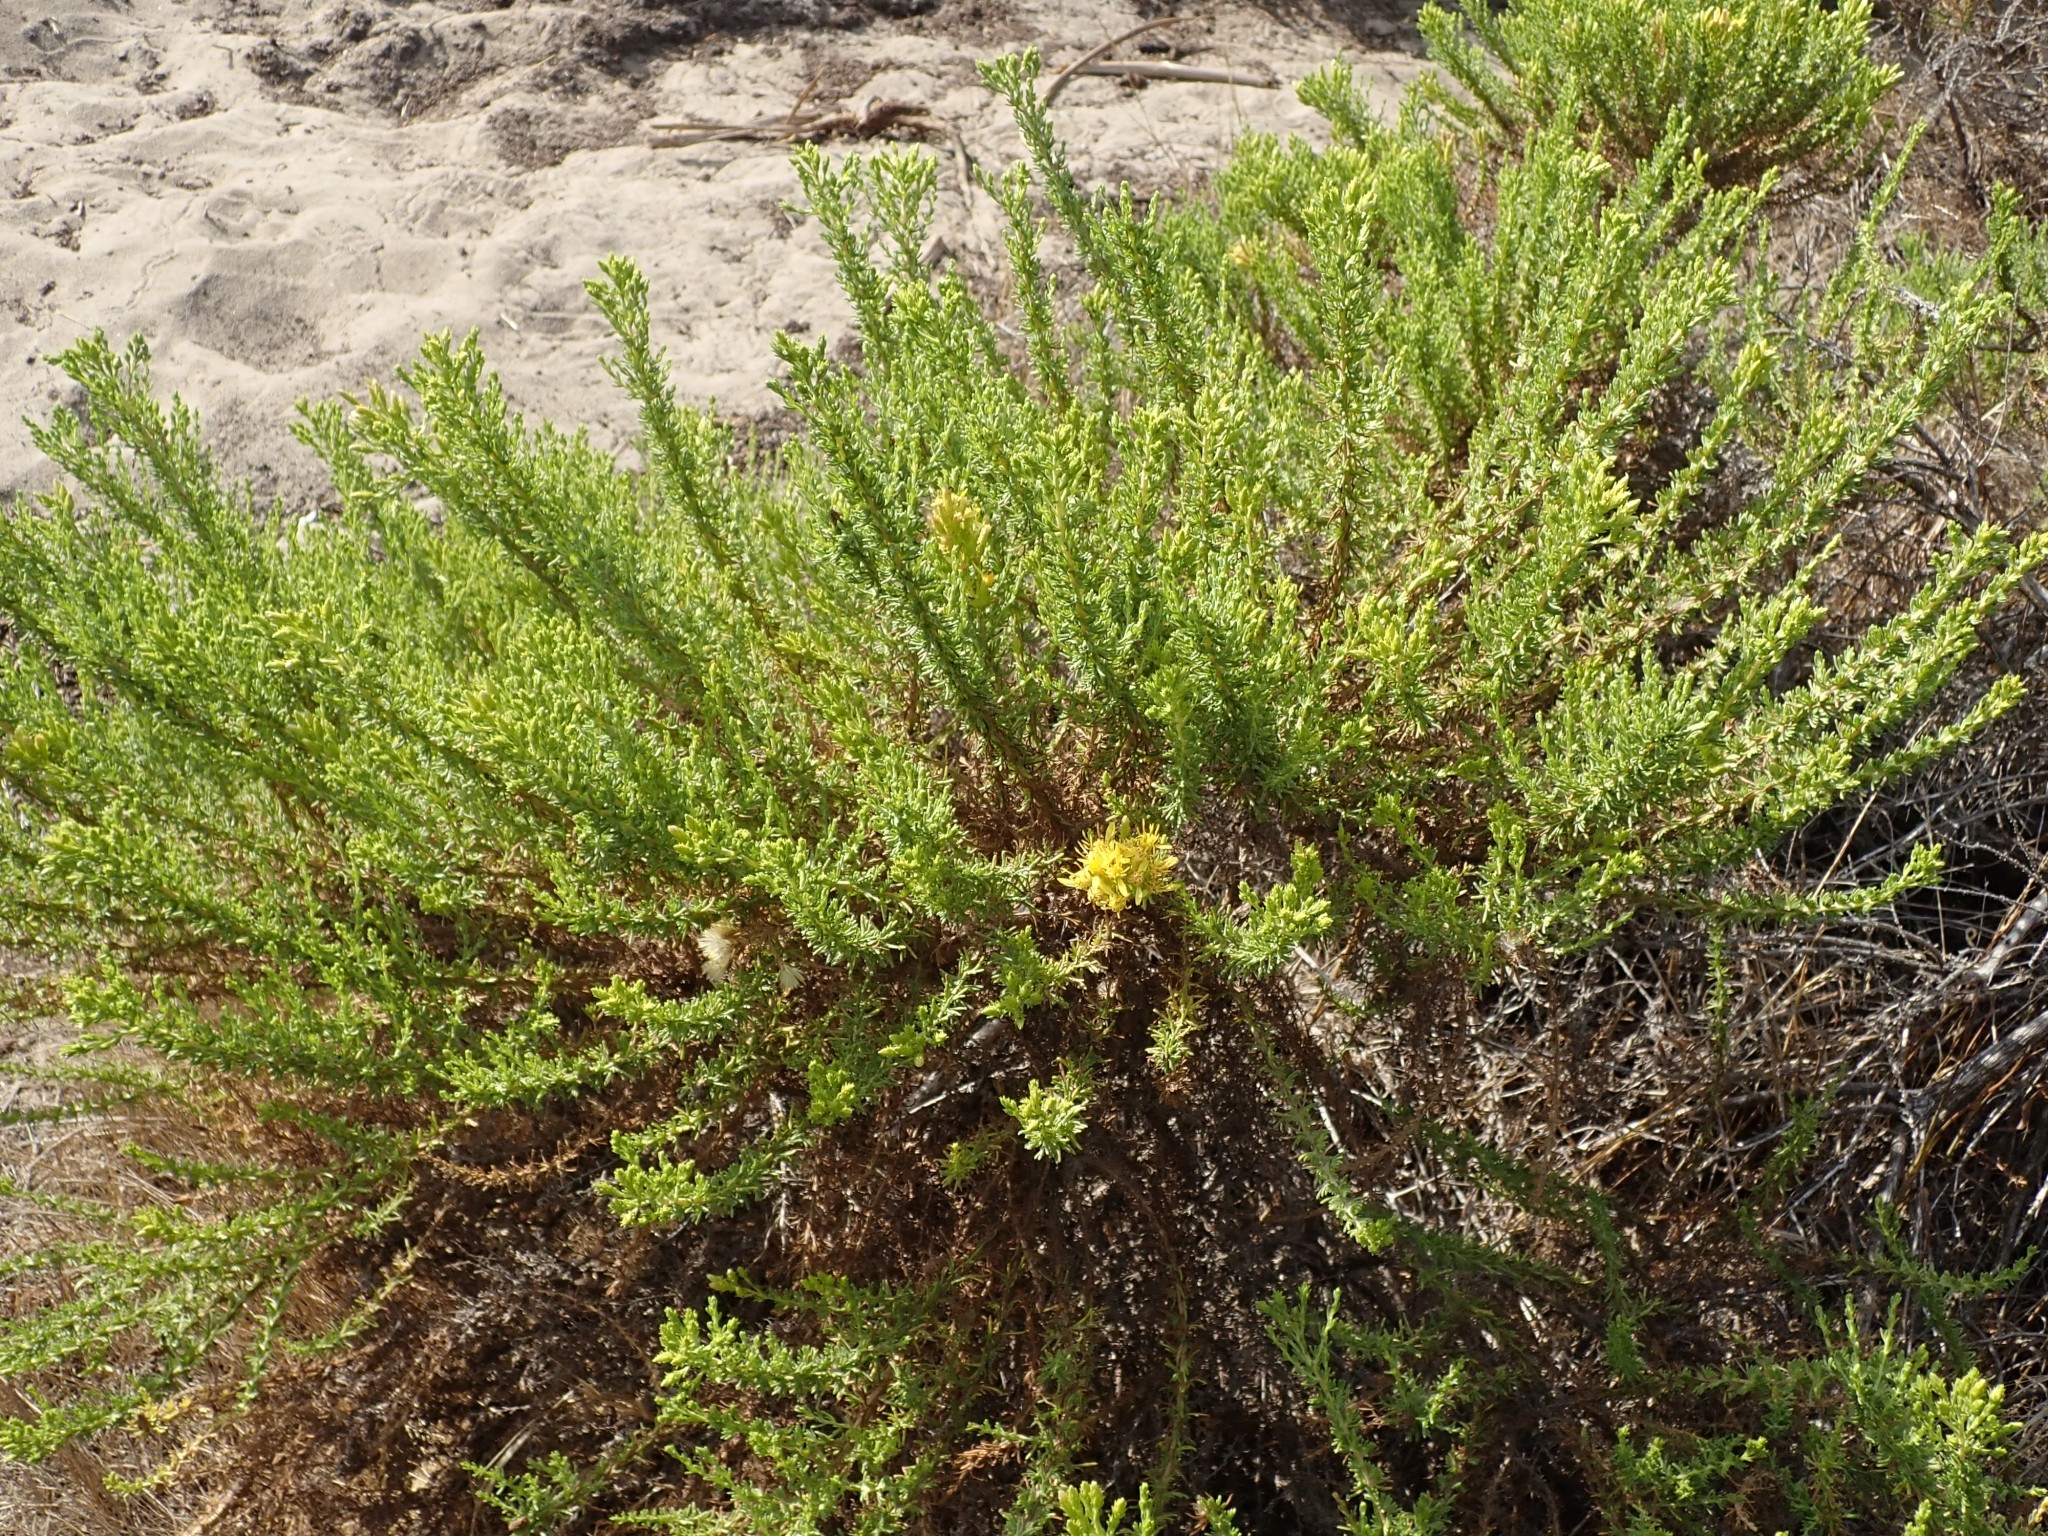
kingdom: Plantae
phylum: Tracheophyta
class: Magnoliopsida
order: Asterales
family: Asteraceae
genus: Ericameria
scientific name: Ericameria ericoides
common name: California goldenbush
